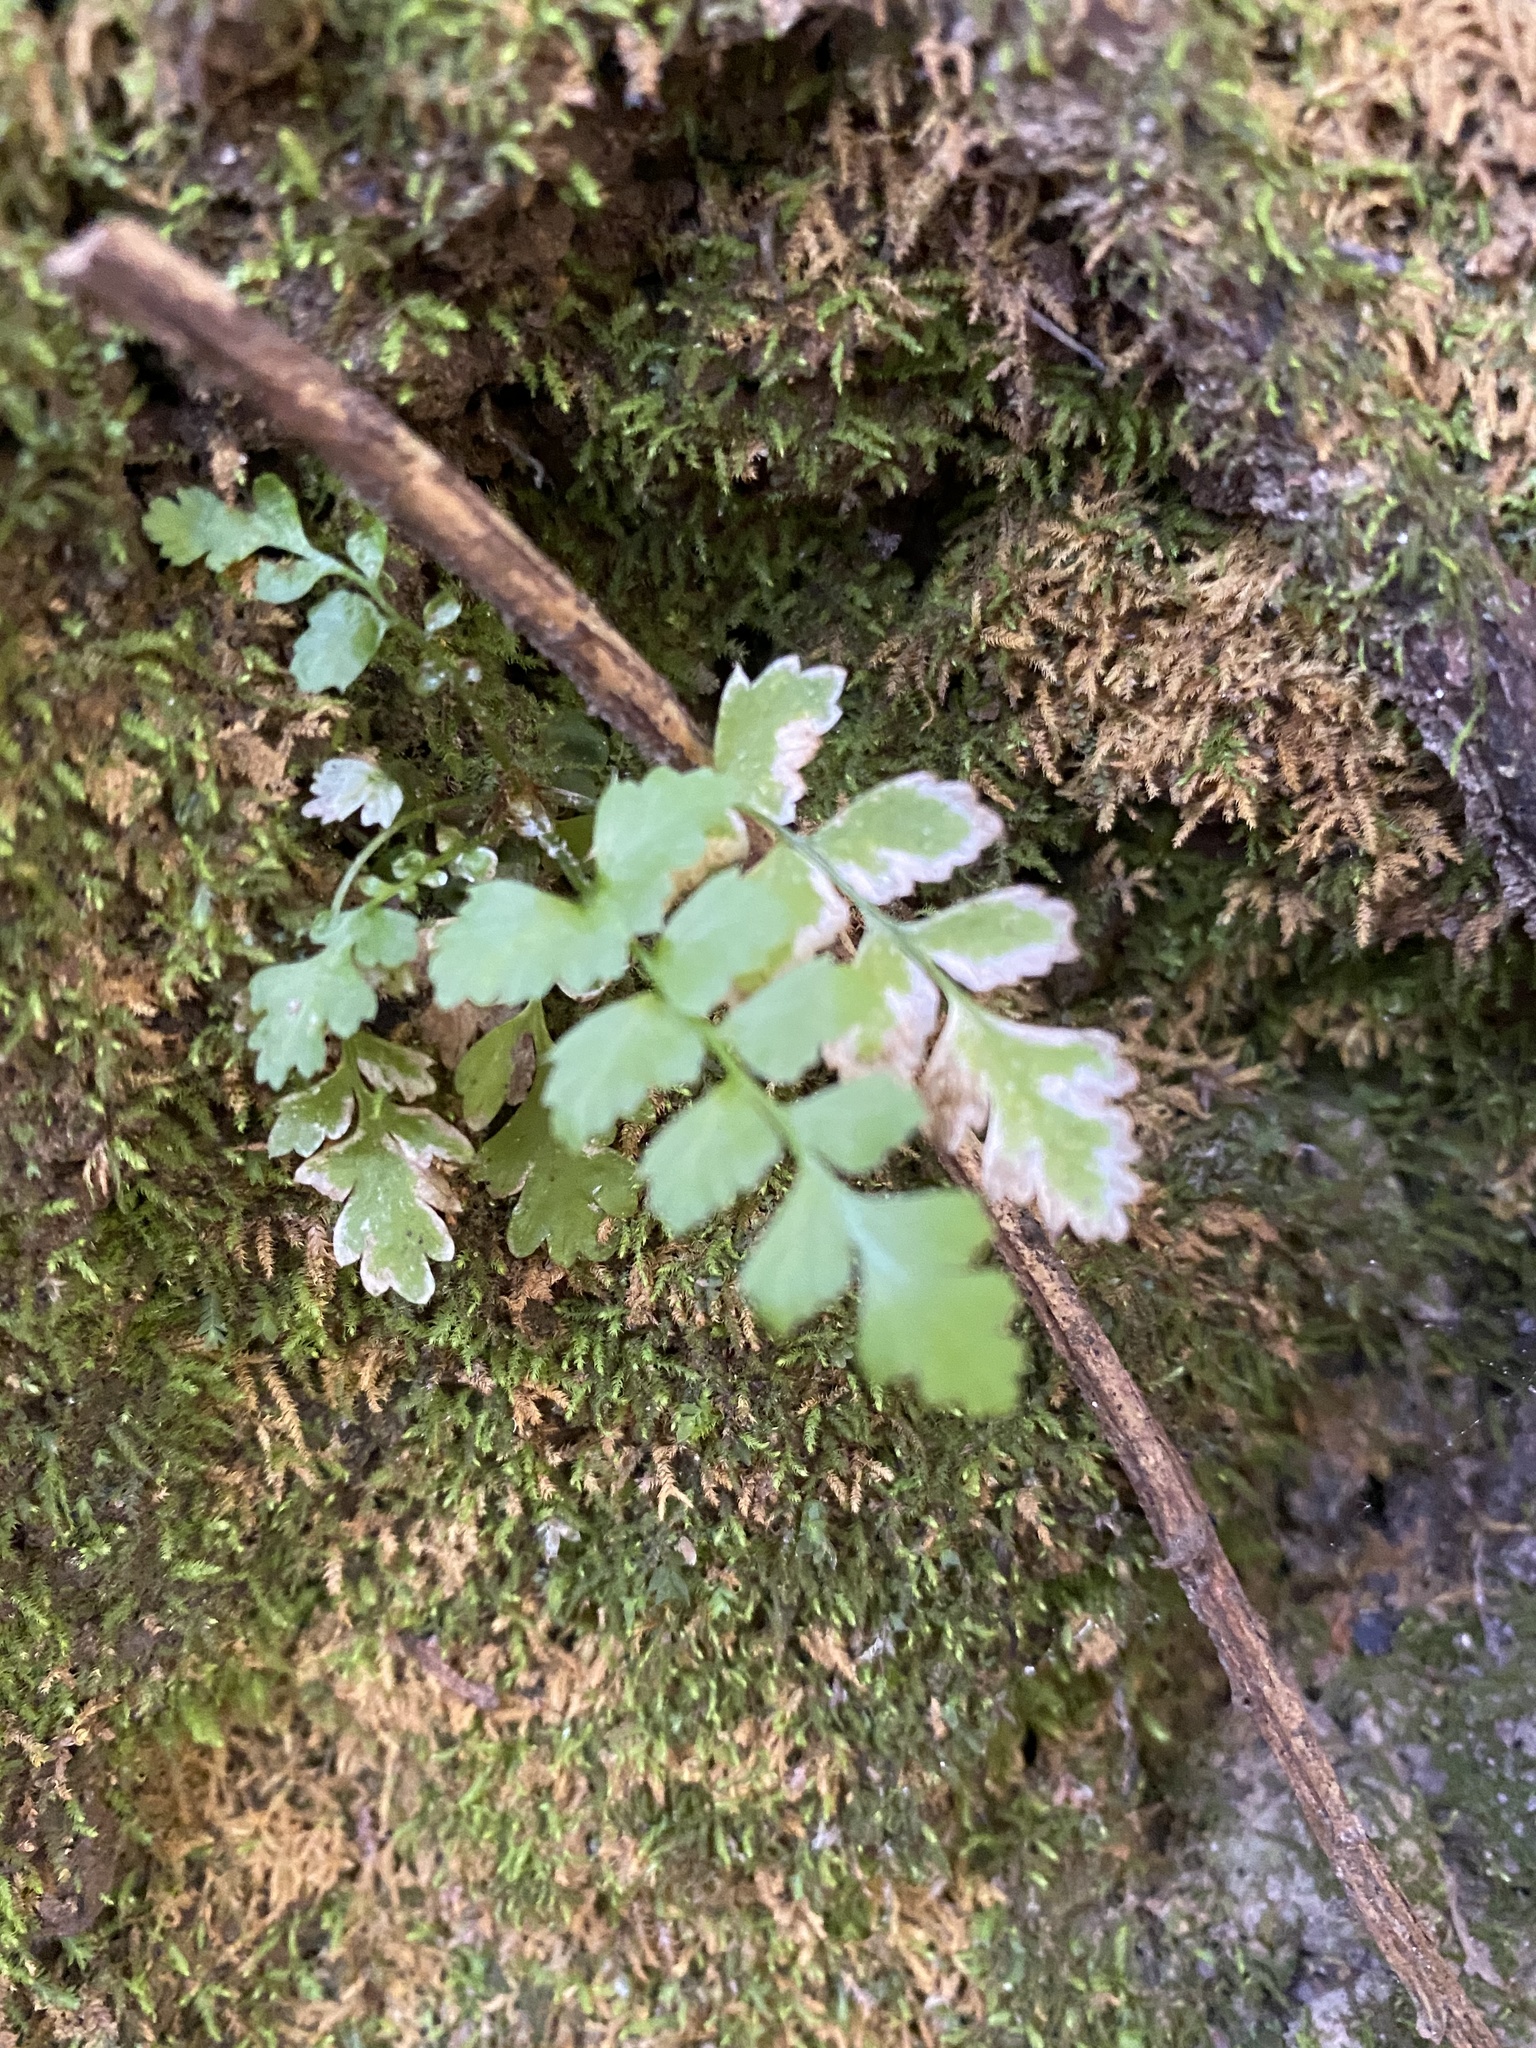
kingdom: Plantae
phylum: Tracheophyta
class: Polypodiopsida
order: Polypodiales
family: Dryopteridaceae
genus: Polystichum
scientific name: Polystichum munitum
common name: Western sword-fern
